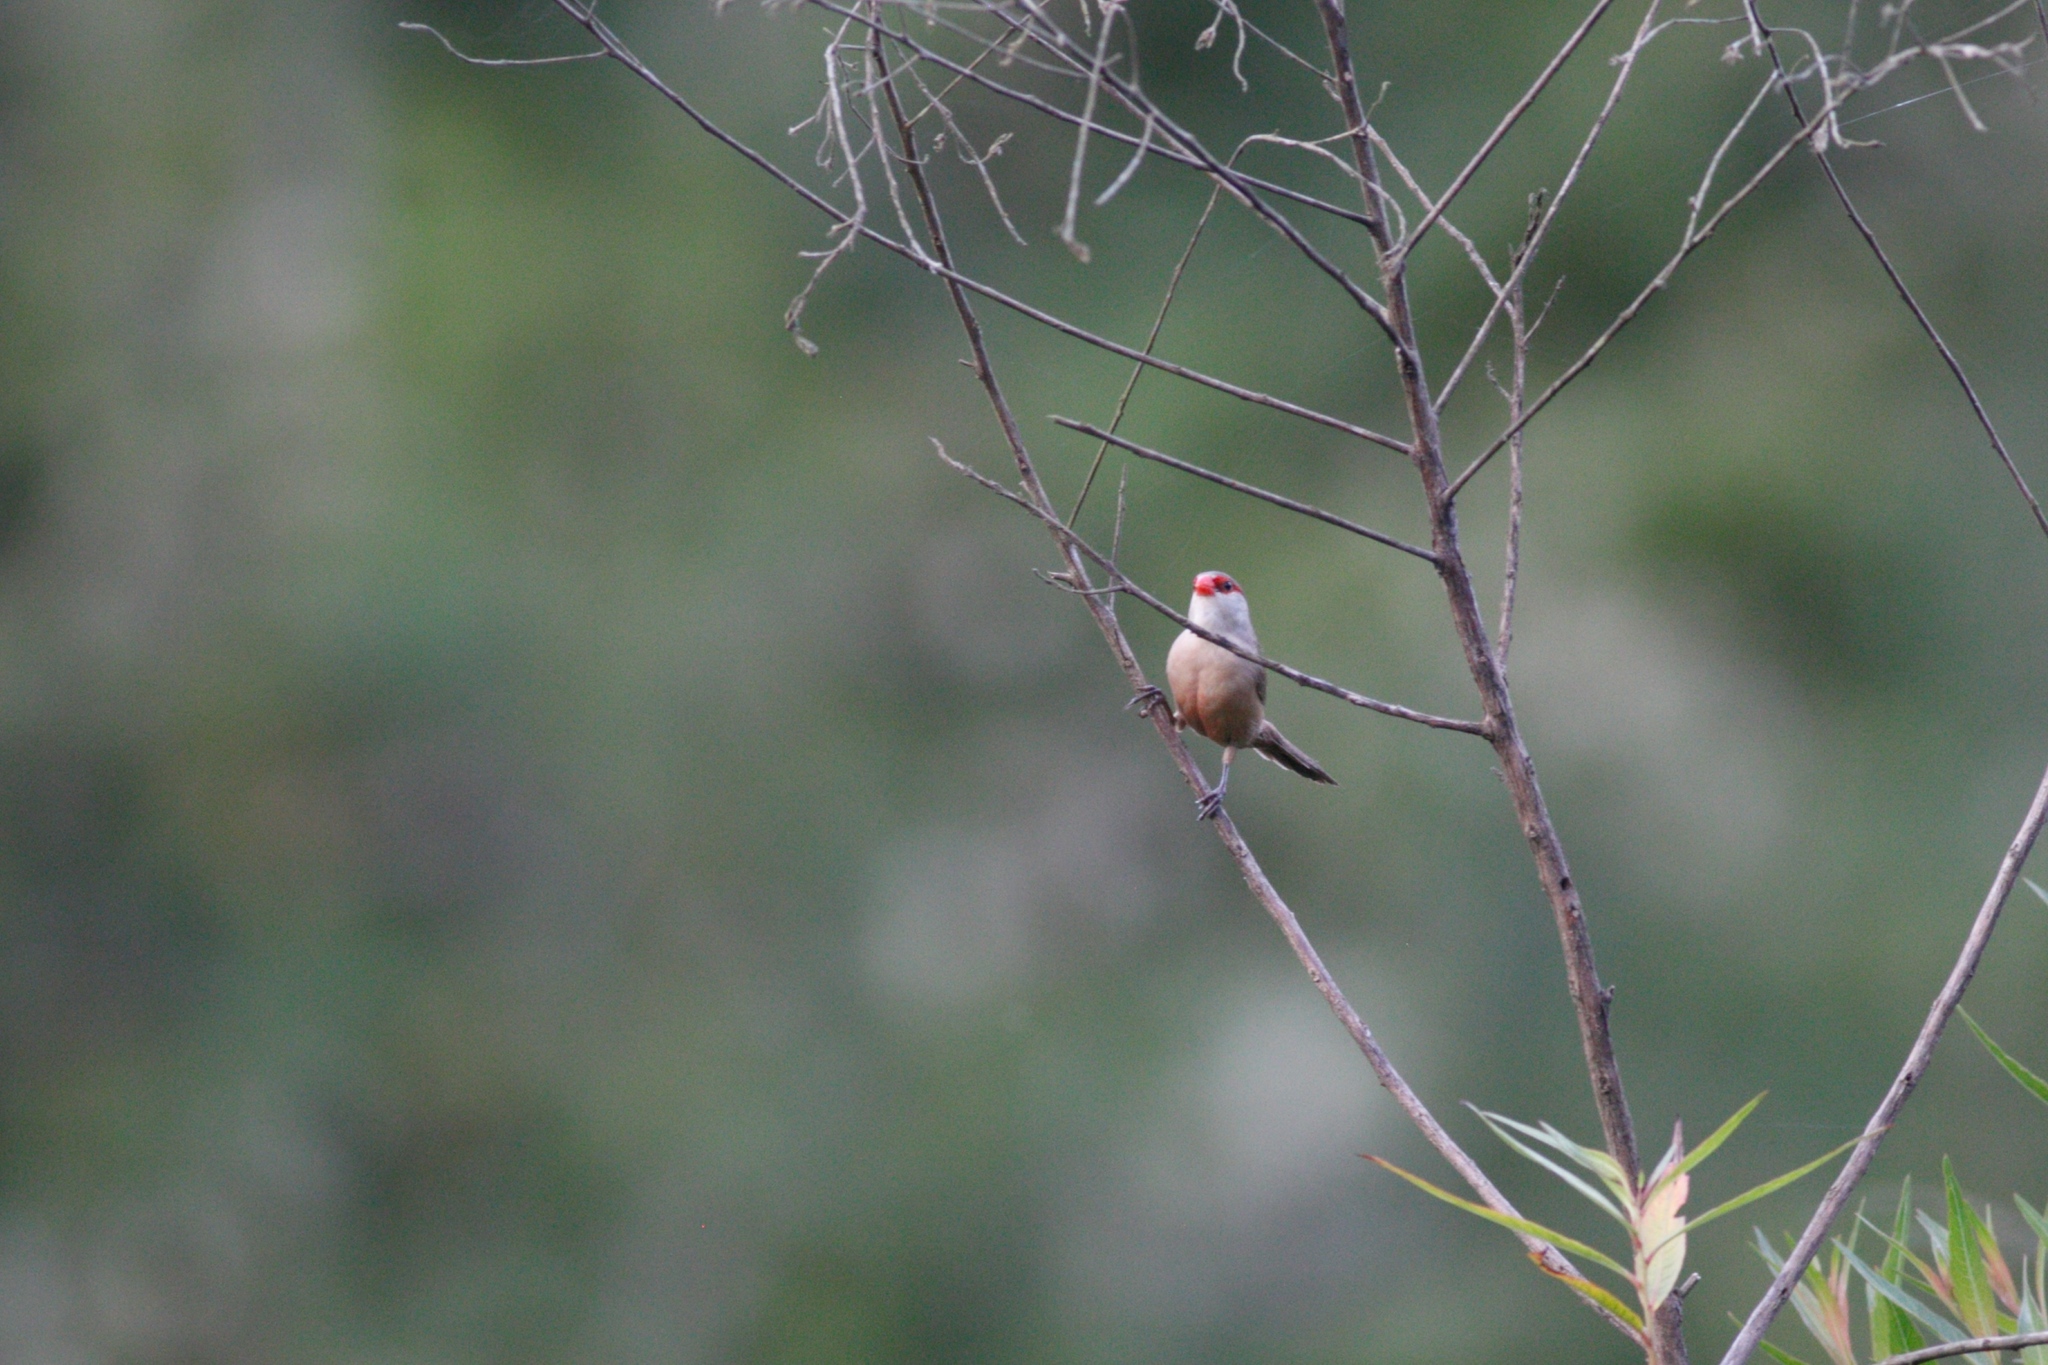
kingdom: Animalia
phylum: Chordata
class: Aves
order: Passeriformes
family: Estrildidae
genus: Estrilda
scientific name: Estrilda astrild
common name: Common waxbill
